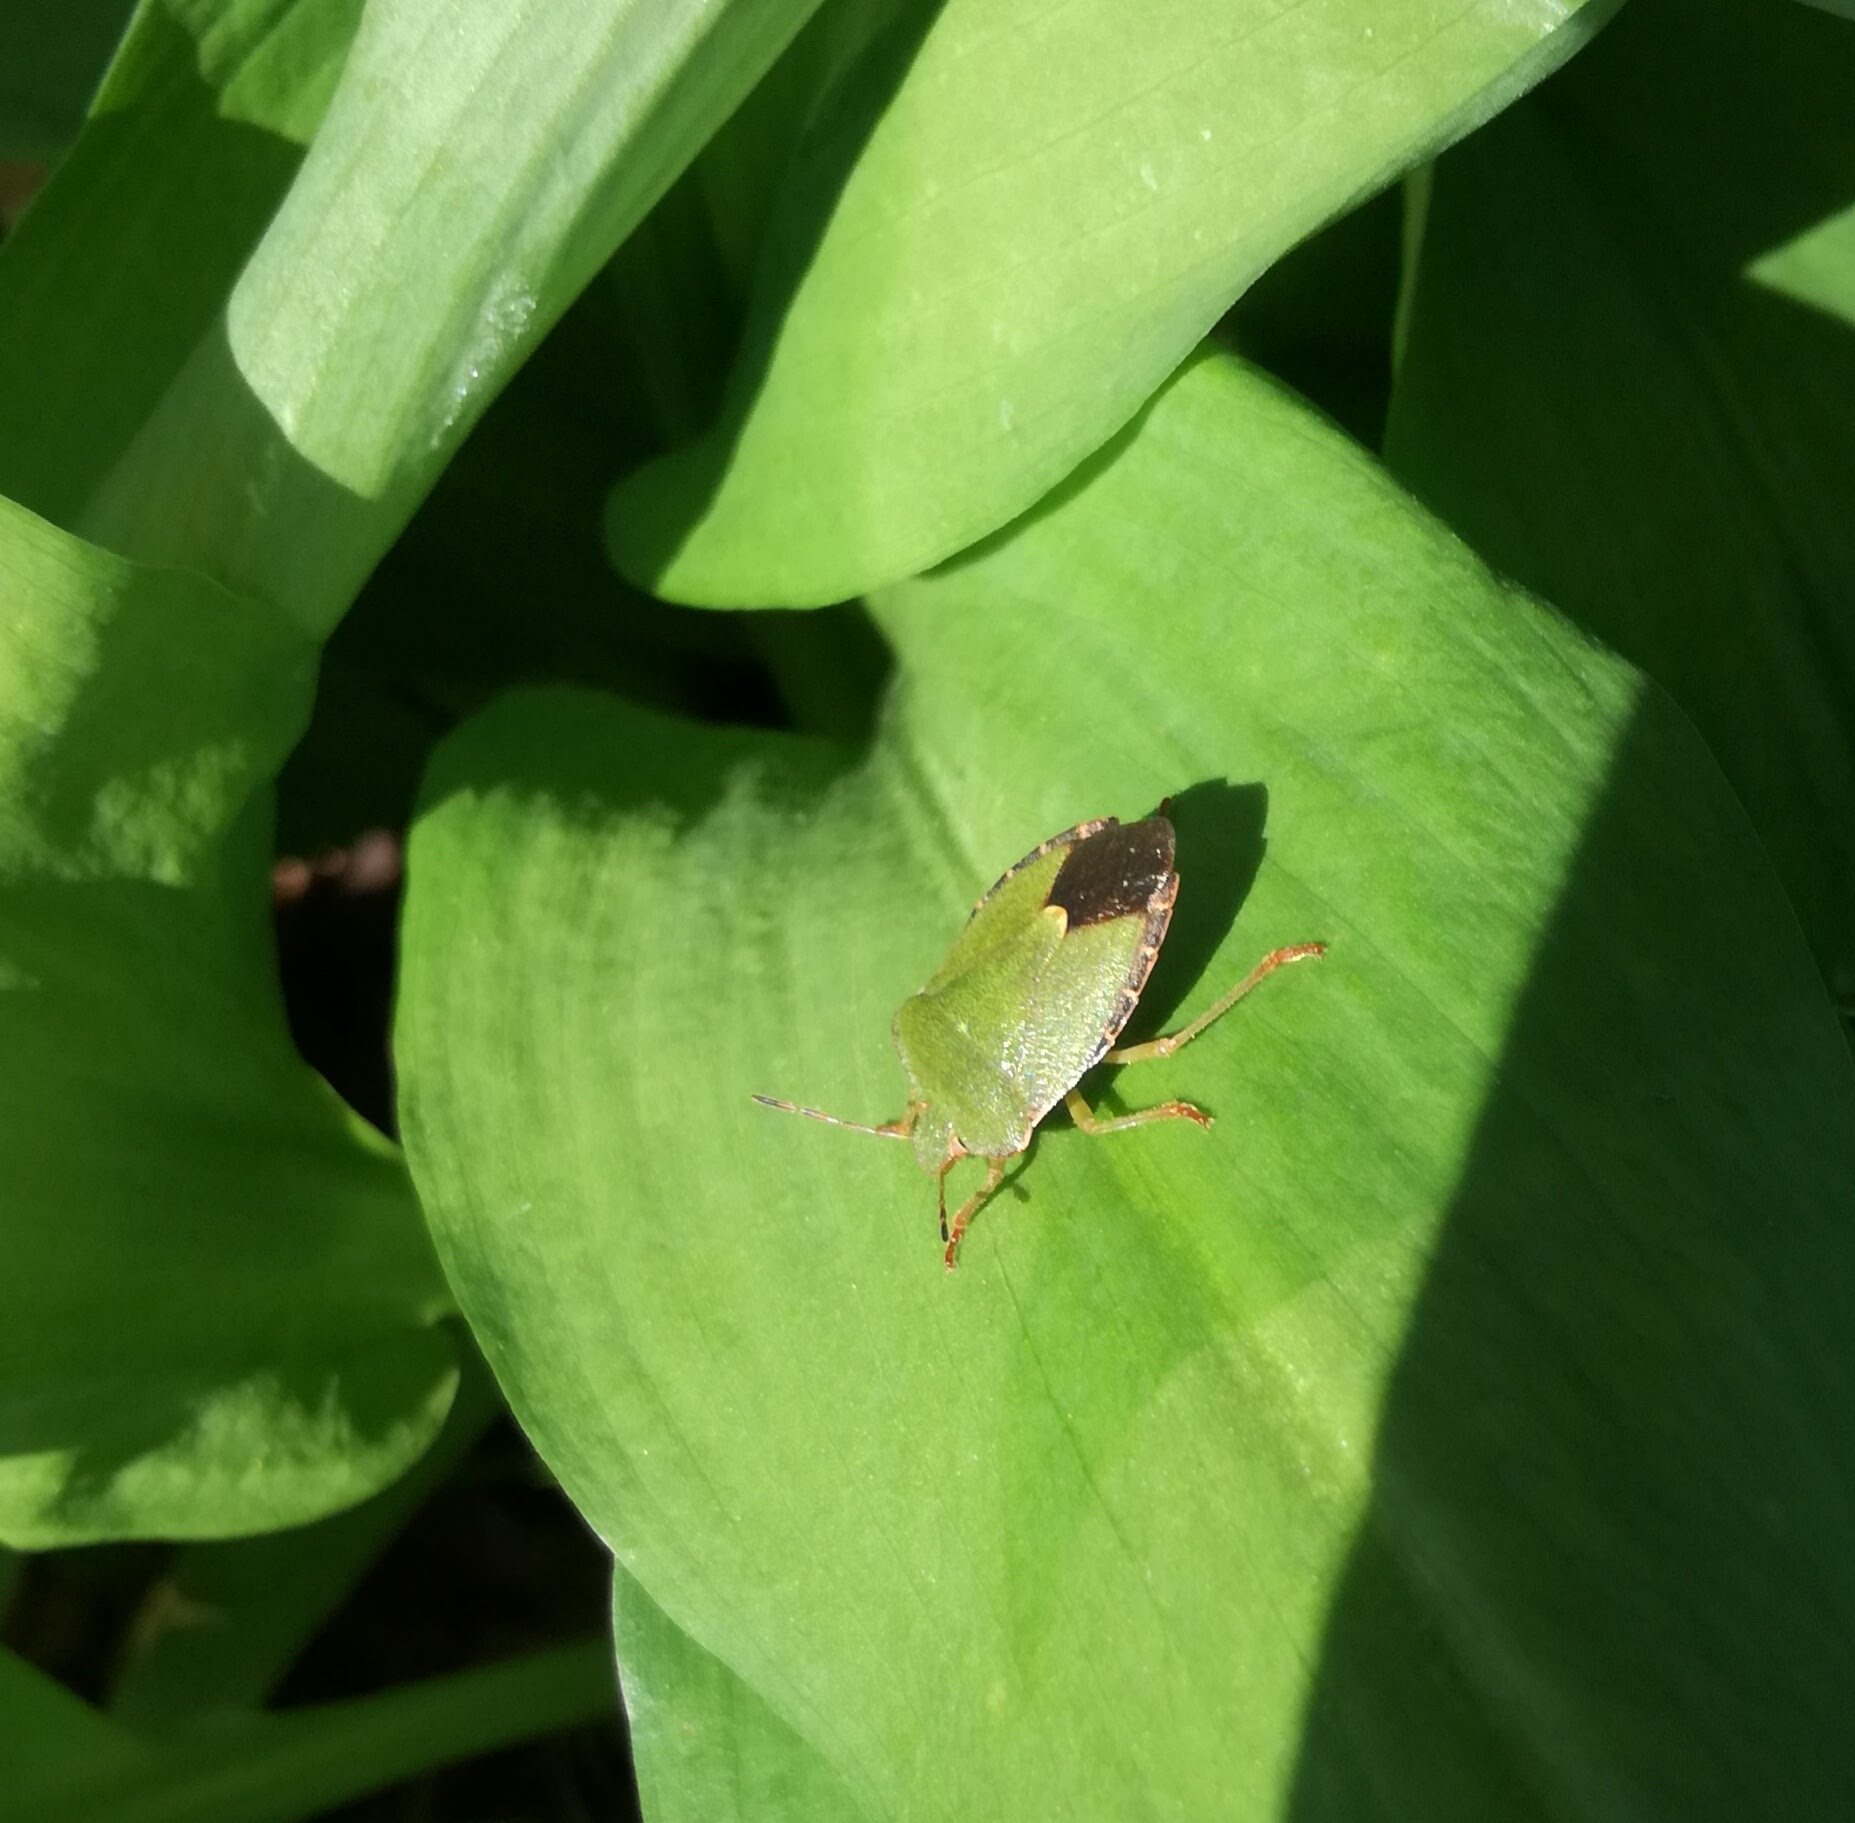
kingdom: Animalia
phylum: Arthropoda
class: Insecta
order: Hemiptera
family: Pentatomidae
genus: Palomena
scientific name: Palomena prasina
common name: Green shieldbug
